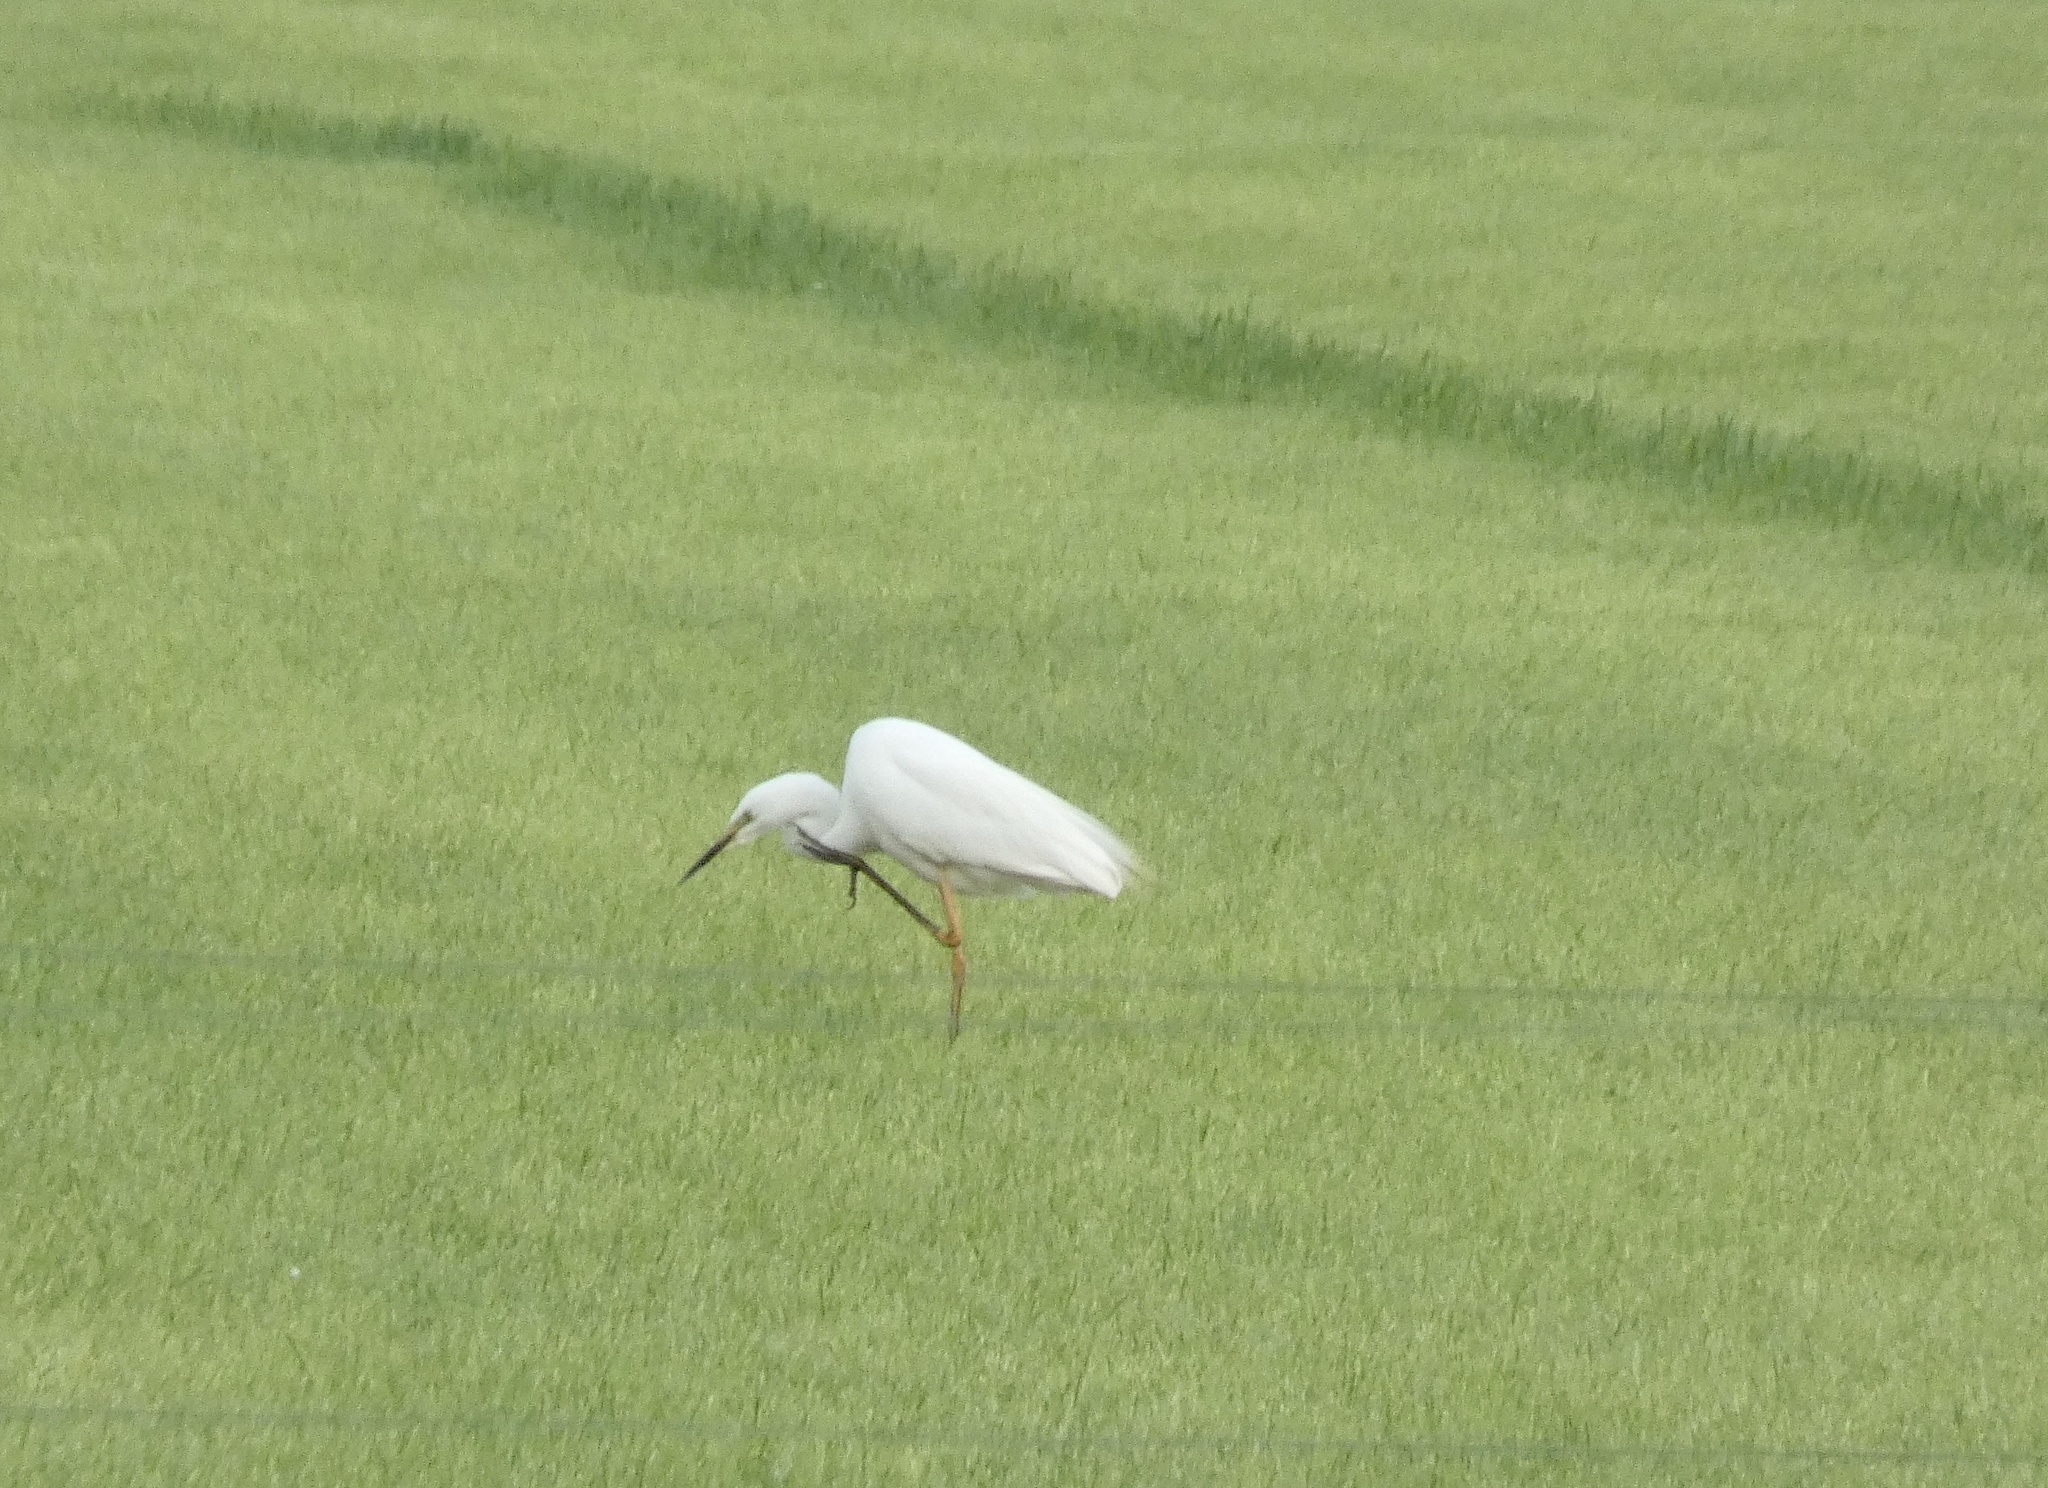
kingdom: Animalia
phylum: Chordata
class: Aves
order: Pelecaniformes
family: Ardeidae
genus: Ardea
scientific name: Ardea alba
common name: Great egret
